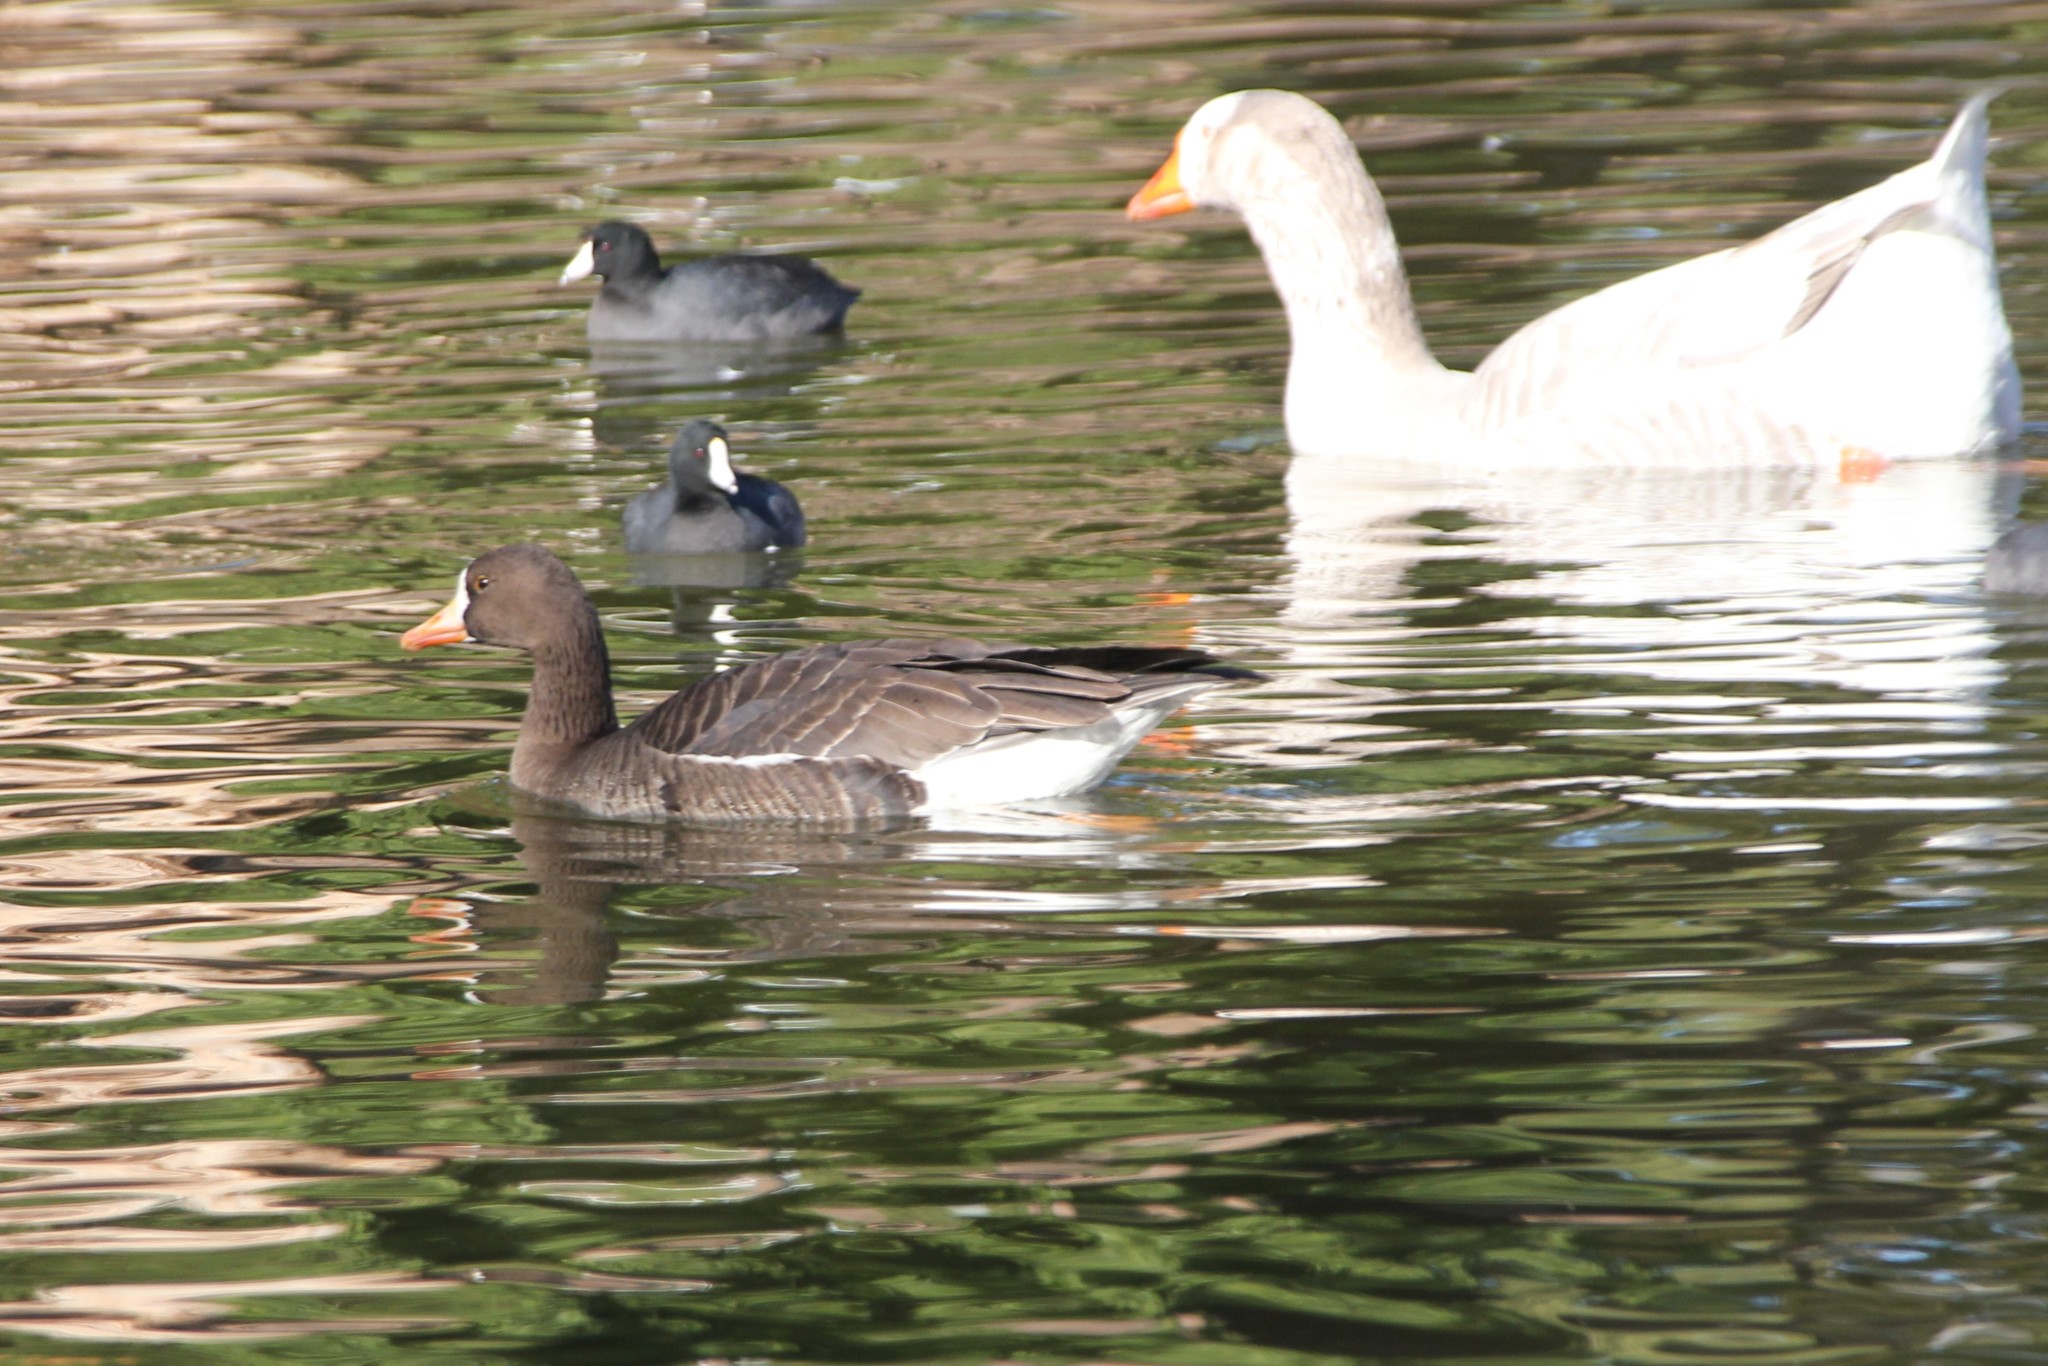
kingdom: Animalia
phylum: Chordata
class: Aves
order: Anseriformes
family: Anatidae
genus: Anser
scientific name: Anser albifrons
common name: Greater white-fronted goose
